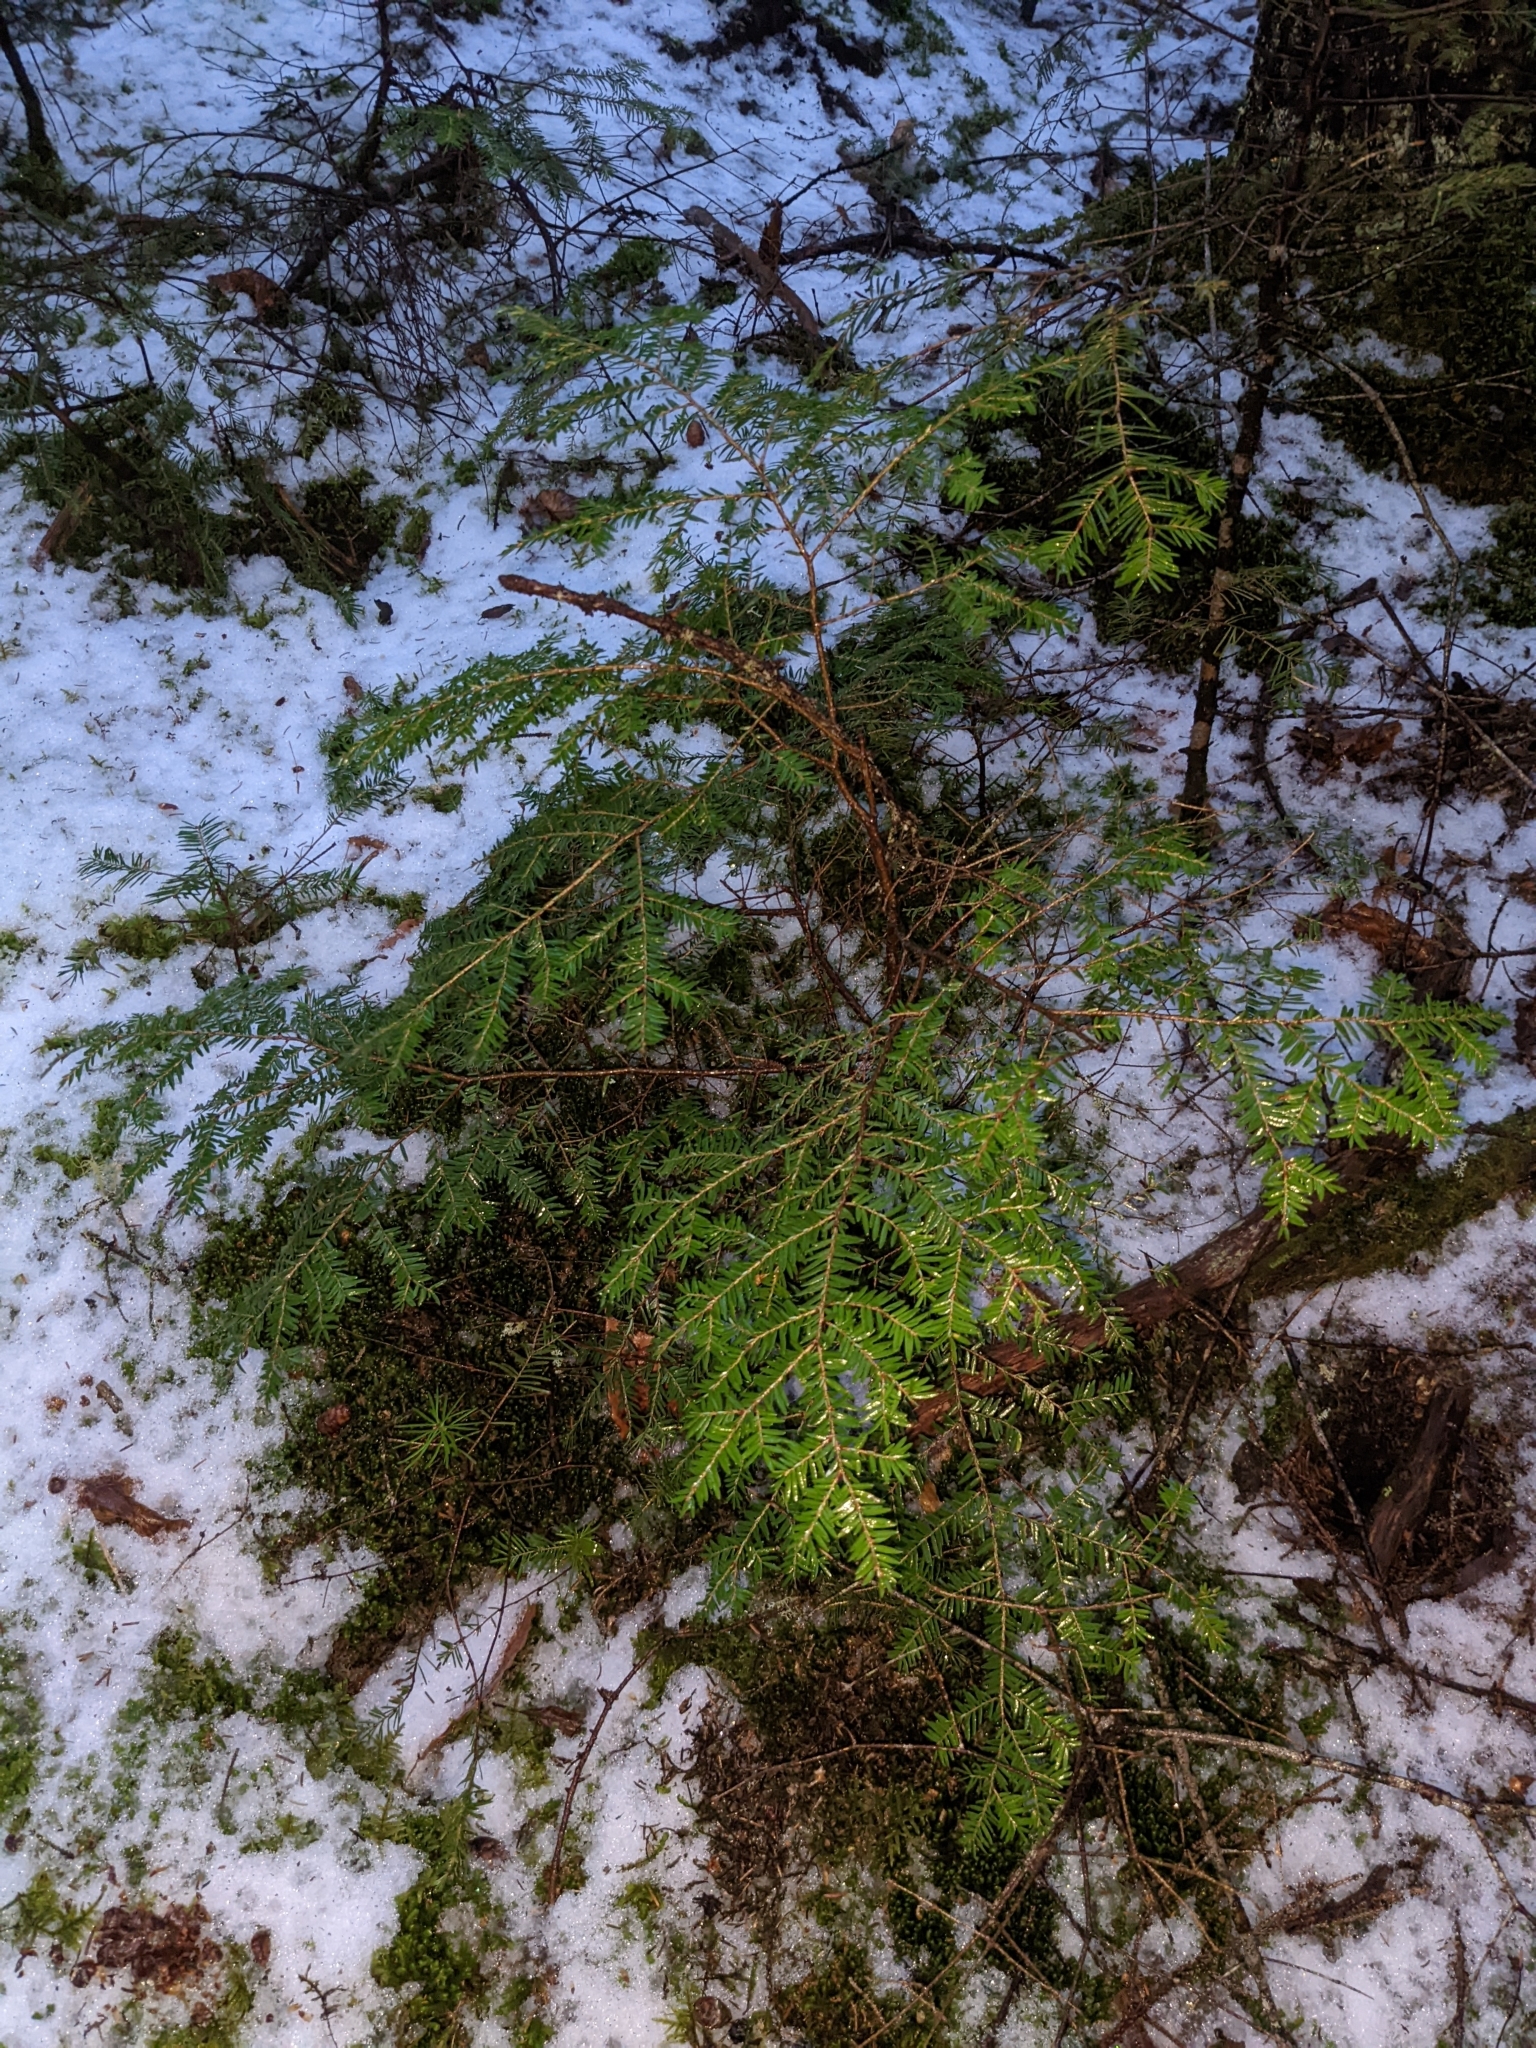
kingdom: Plantae
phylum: Tracheophyta
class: Pinopsida
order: Pinales
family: Pinaceae
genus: Tsuga
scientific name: Tsuga canadensis
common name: Eastern hemlock
